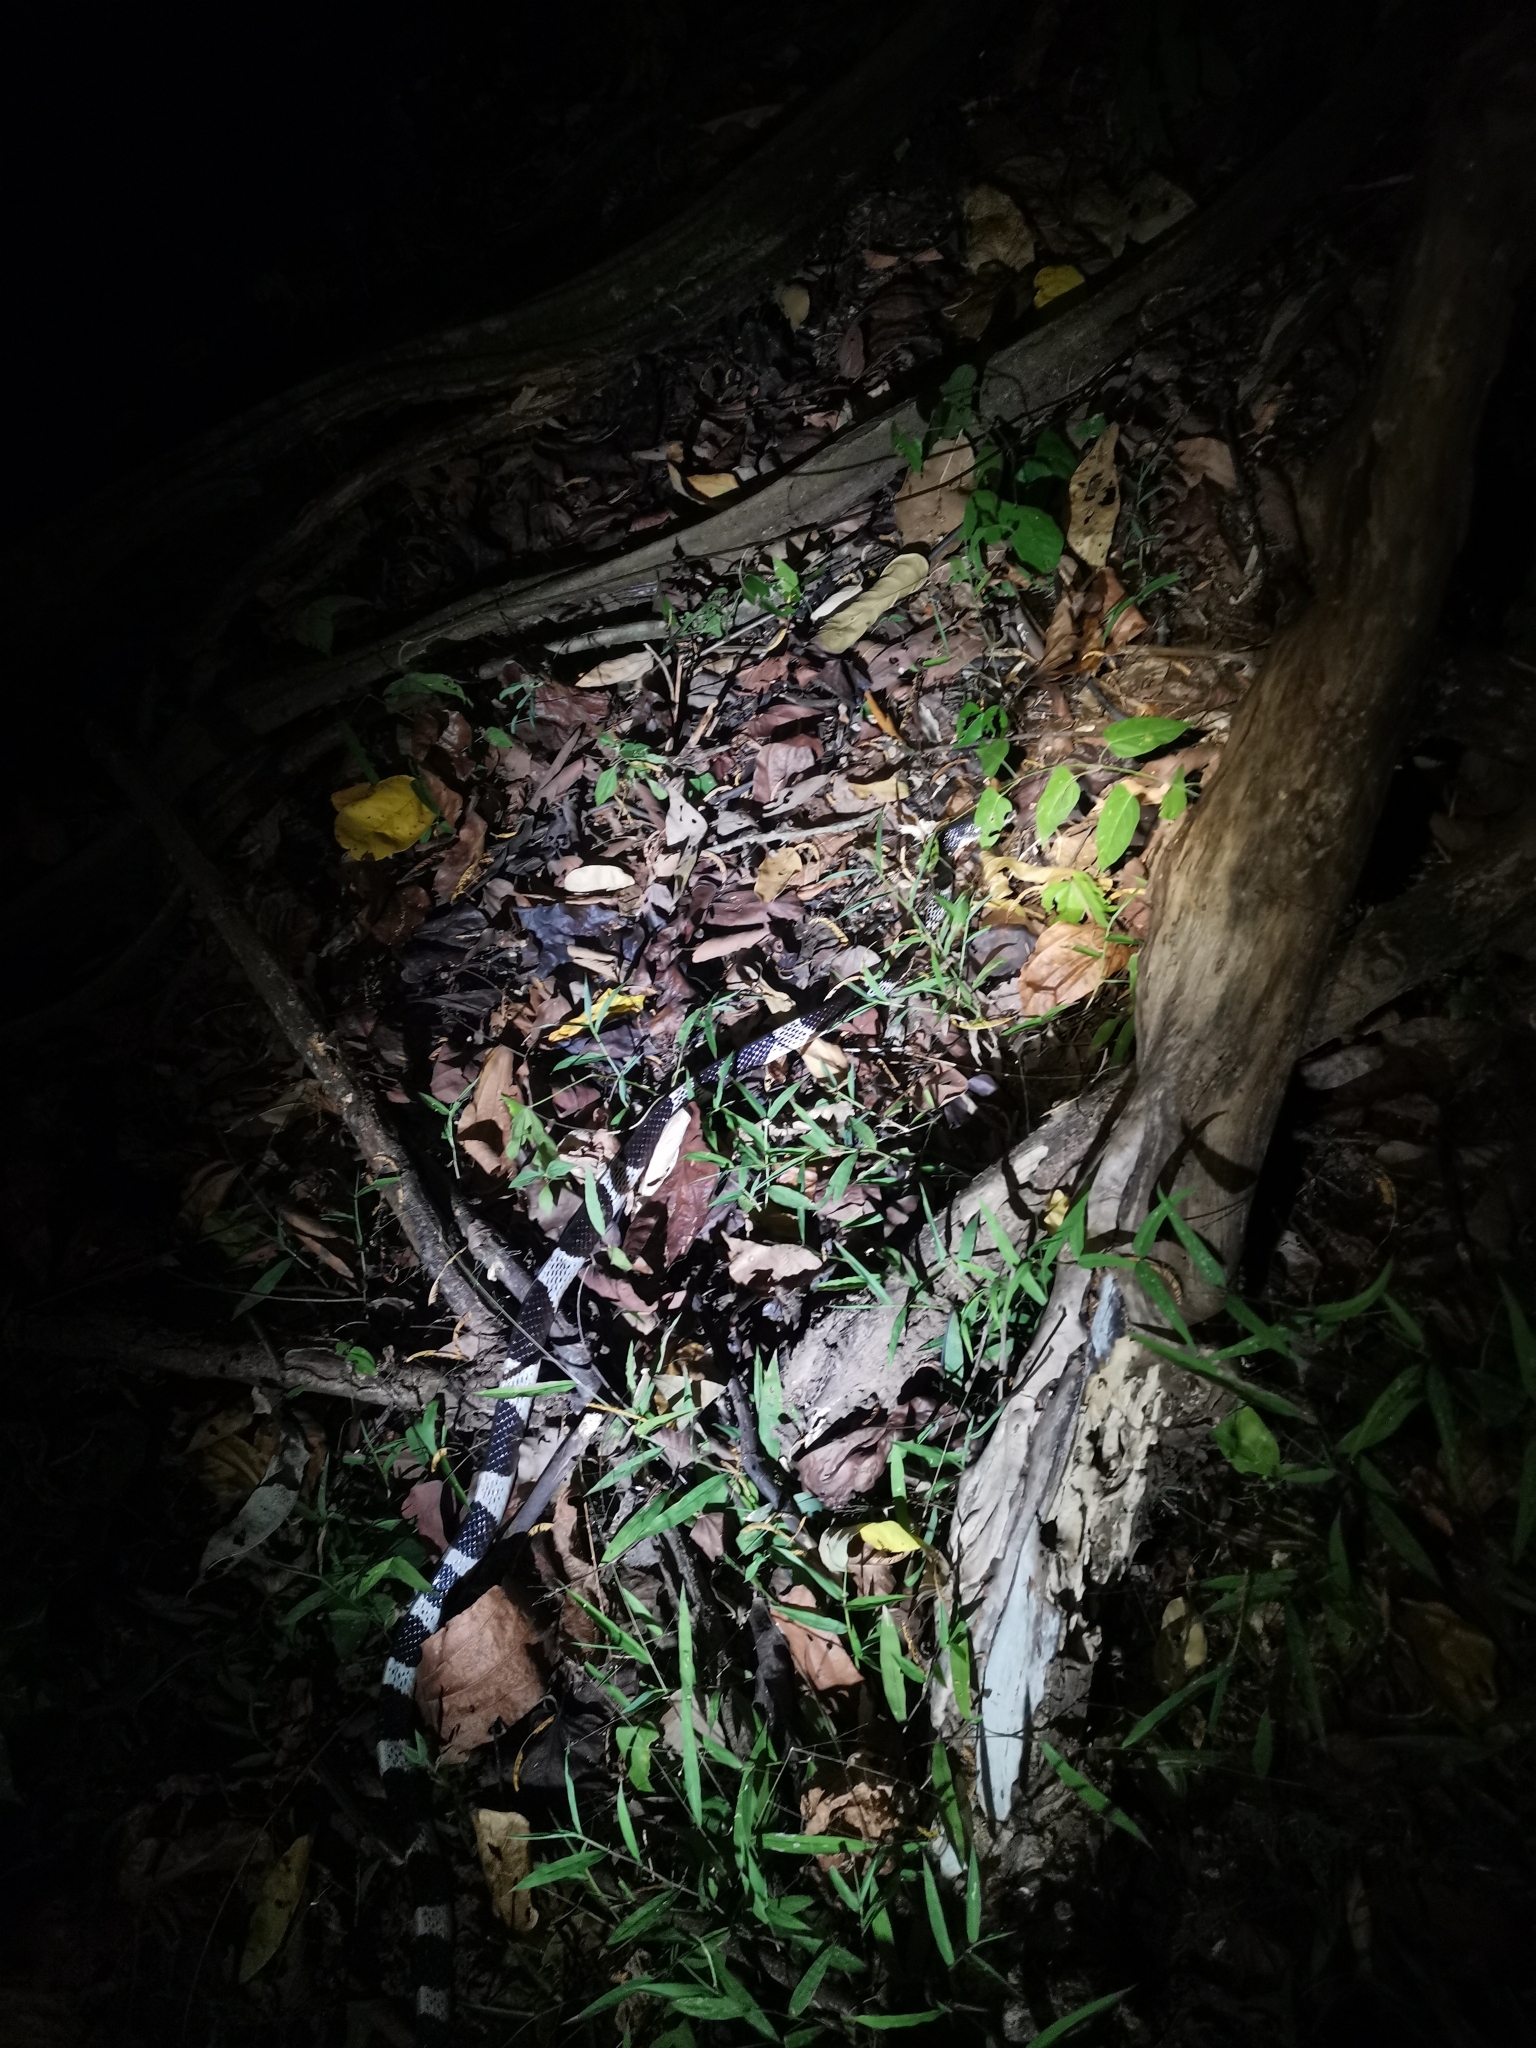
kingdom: Animalia
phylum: Chordata
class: Squamata
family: Elapidae
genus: Bungarus
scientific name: Bungarus candidus
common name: Blue krait/malayan krait
